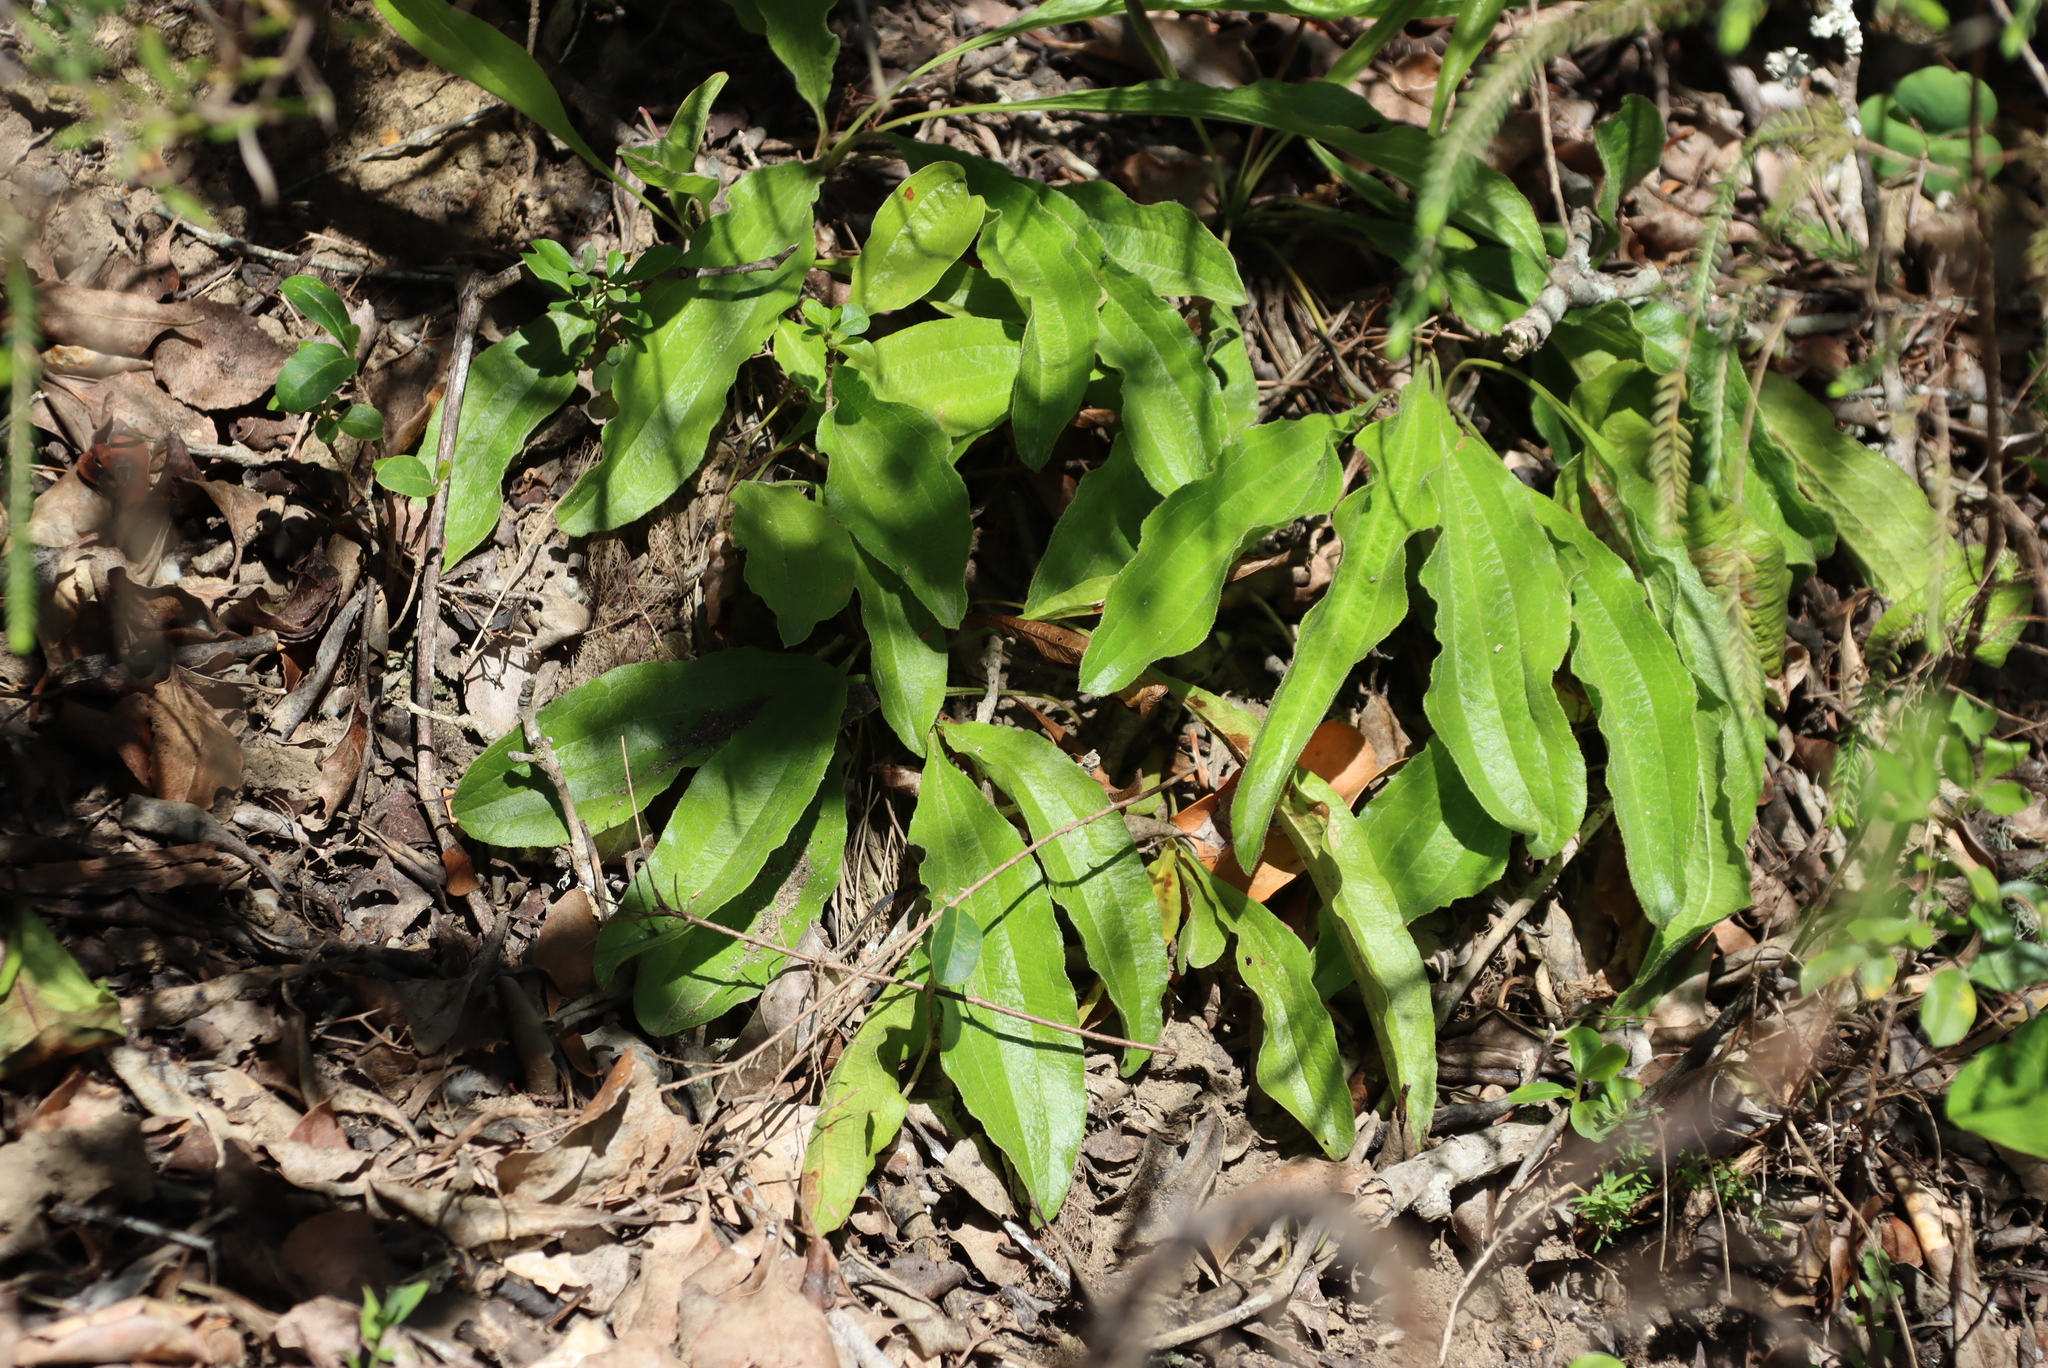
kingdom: Plantae
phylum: Tracheophyta
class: Magnoliopsida
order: Asterales
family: Asteraceae
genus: Helichrysum
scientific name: Helichrysum nudifolium
